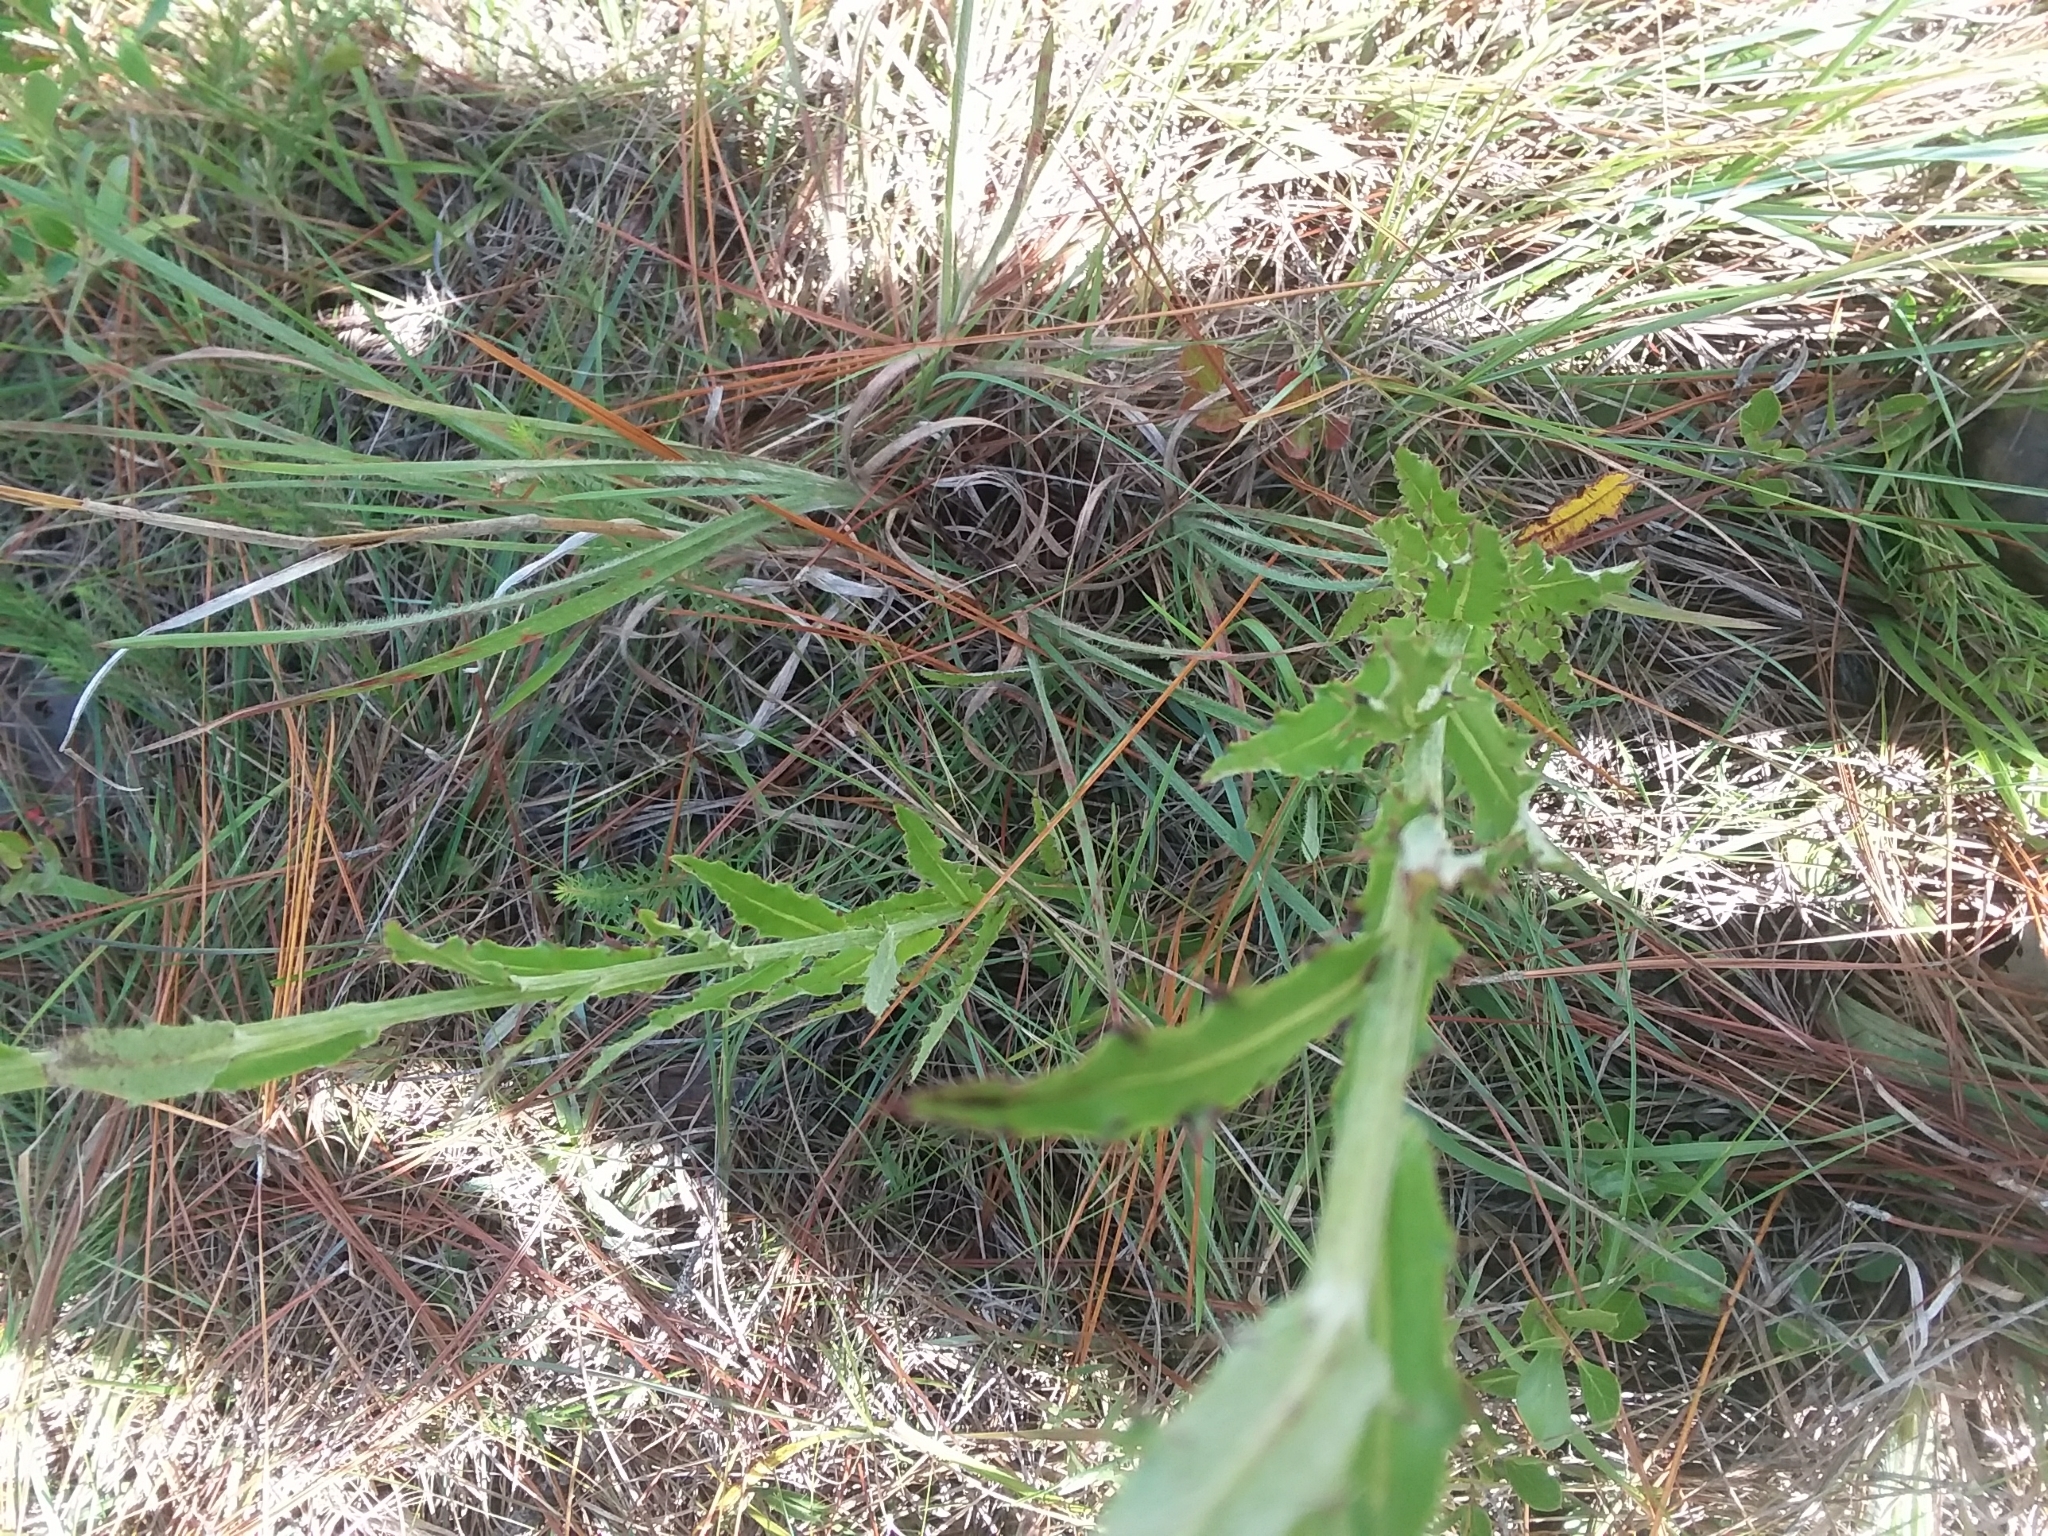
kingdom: Plantae
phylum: Tracheophyta
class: Magnoliopsida
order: Asterales
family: Asteraceae
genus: Cirsium
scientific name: Cirsium lecontei
